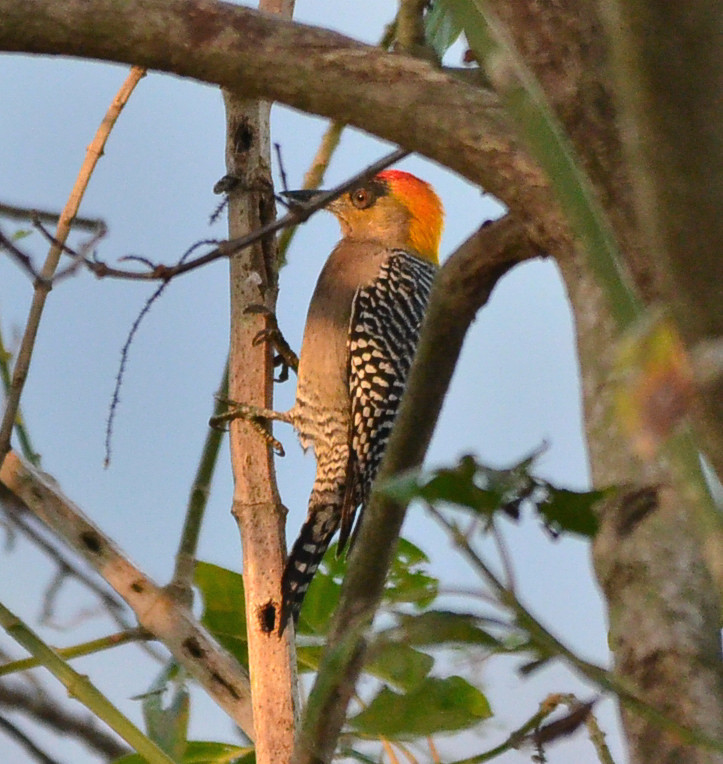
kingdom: Animalia
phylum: Chordata
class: Aves
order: Piciformes
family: Picidae
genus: Melanerpes
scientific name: Melanerpes chrysogenys
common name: Golden-cheeked woodpecker
